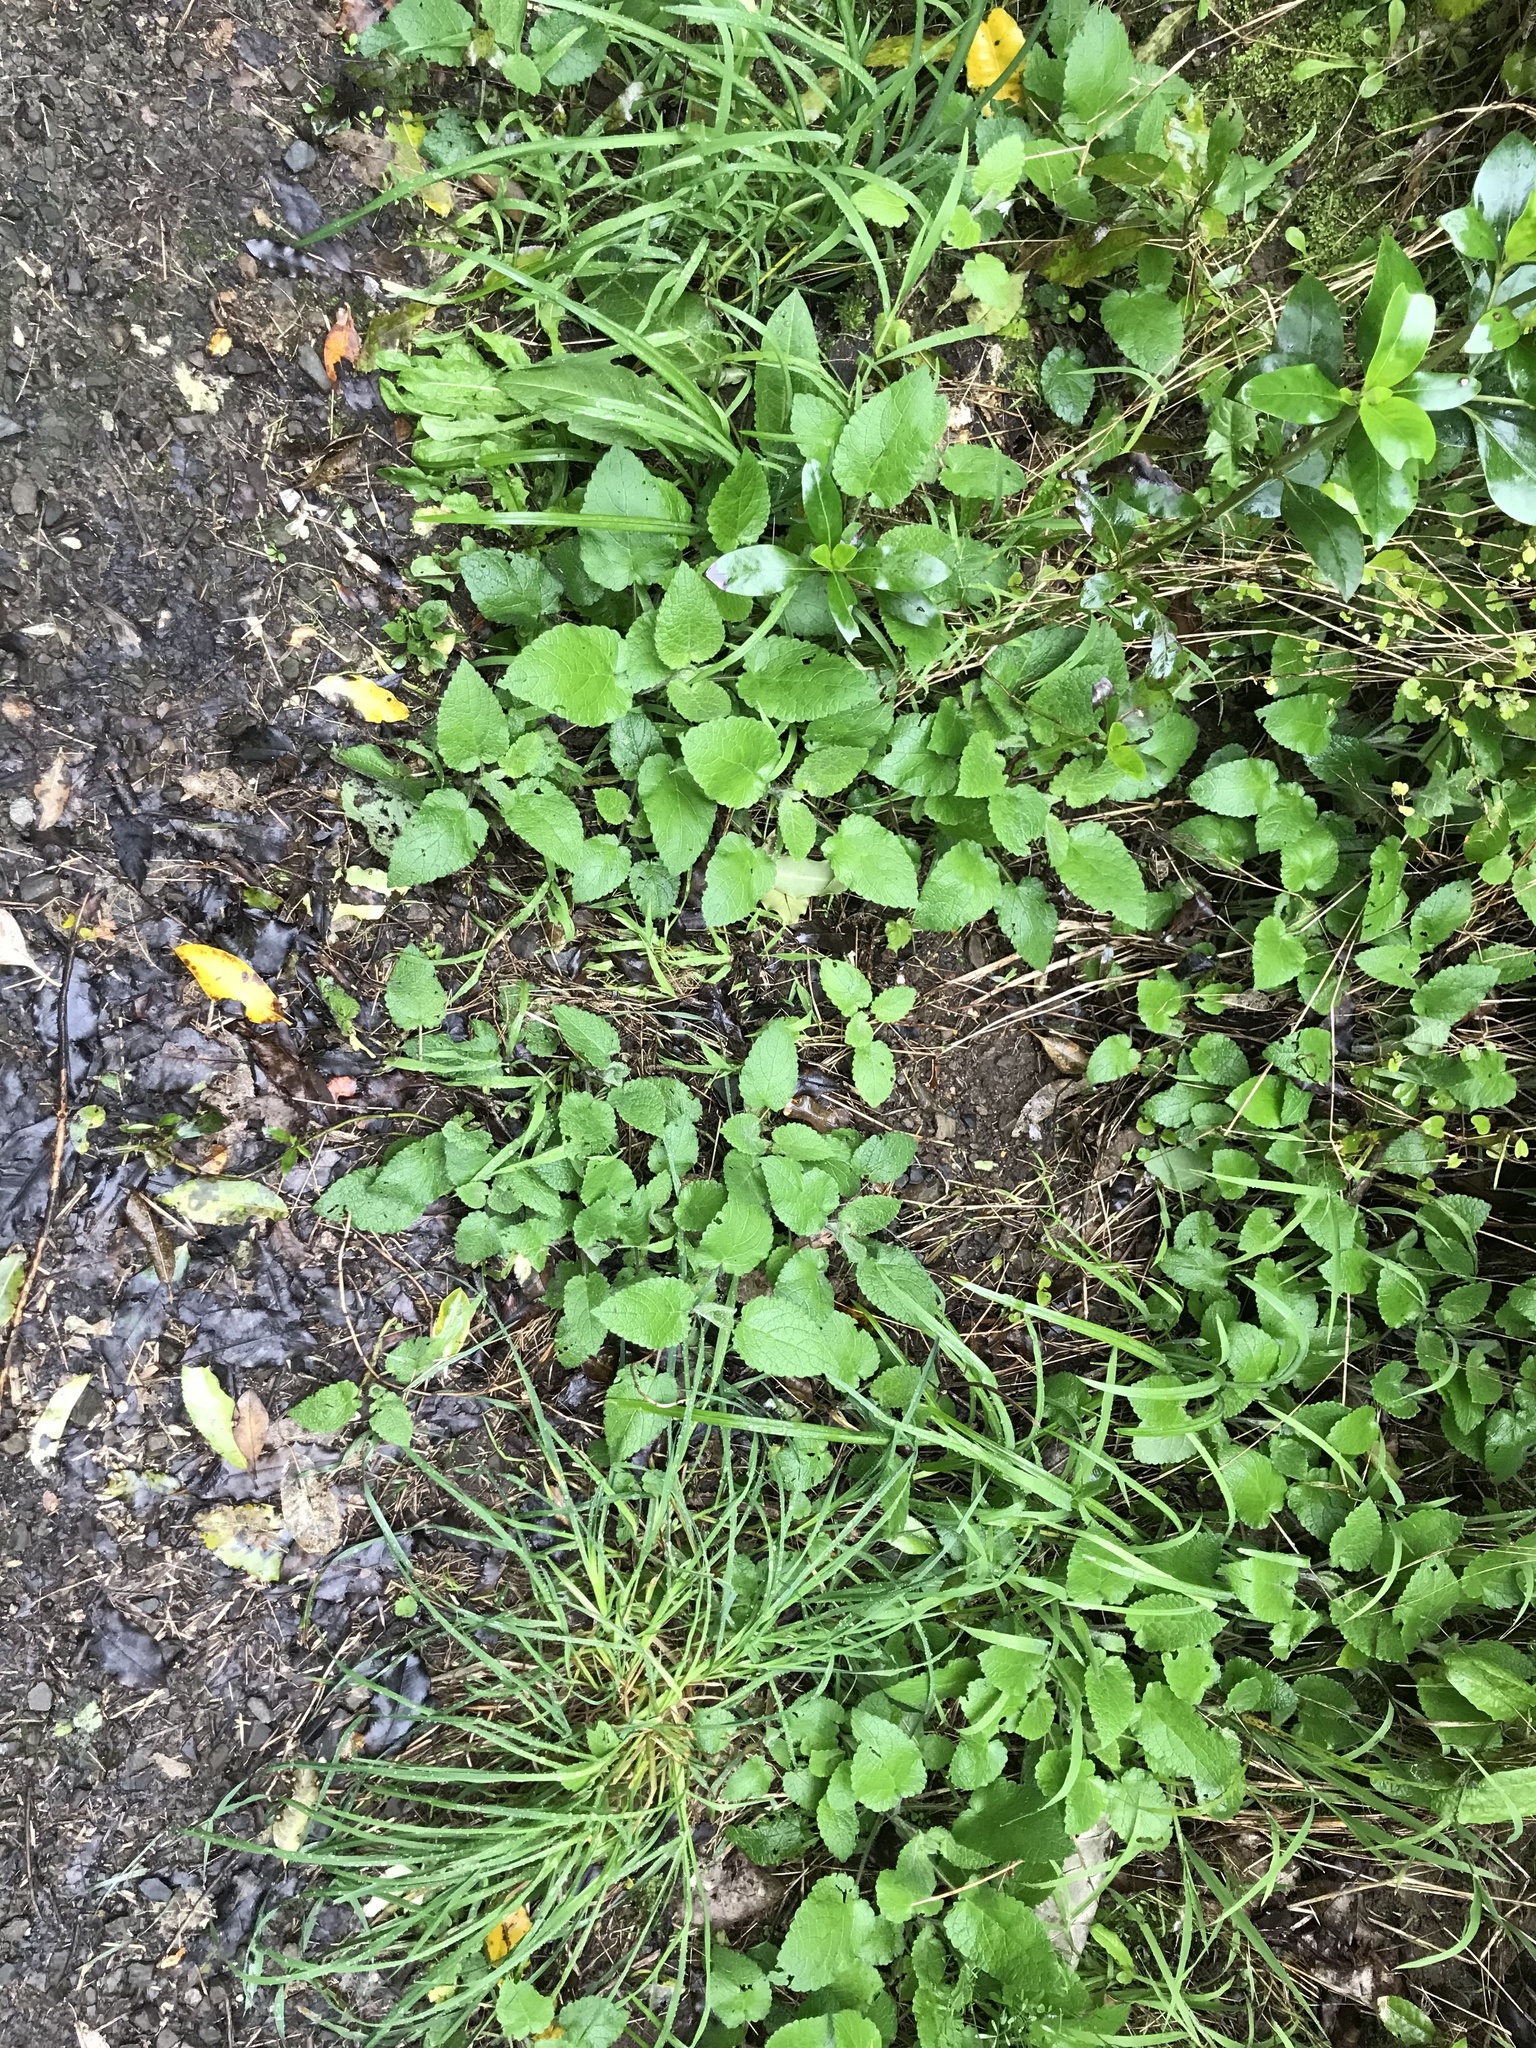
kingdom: Plantae
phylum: Tracheophyta
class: Magnoliopsida
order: Lamiales
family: Lamiaceae
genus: Stachys
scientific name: Stachys sylvatica
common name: Hedge woundwort
